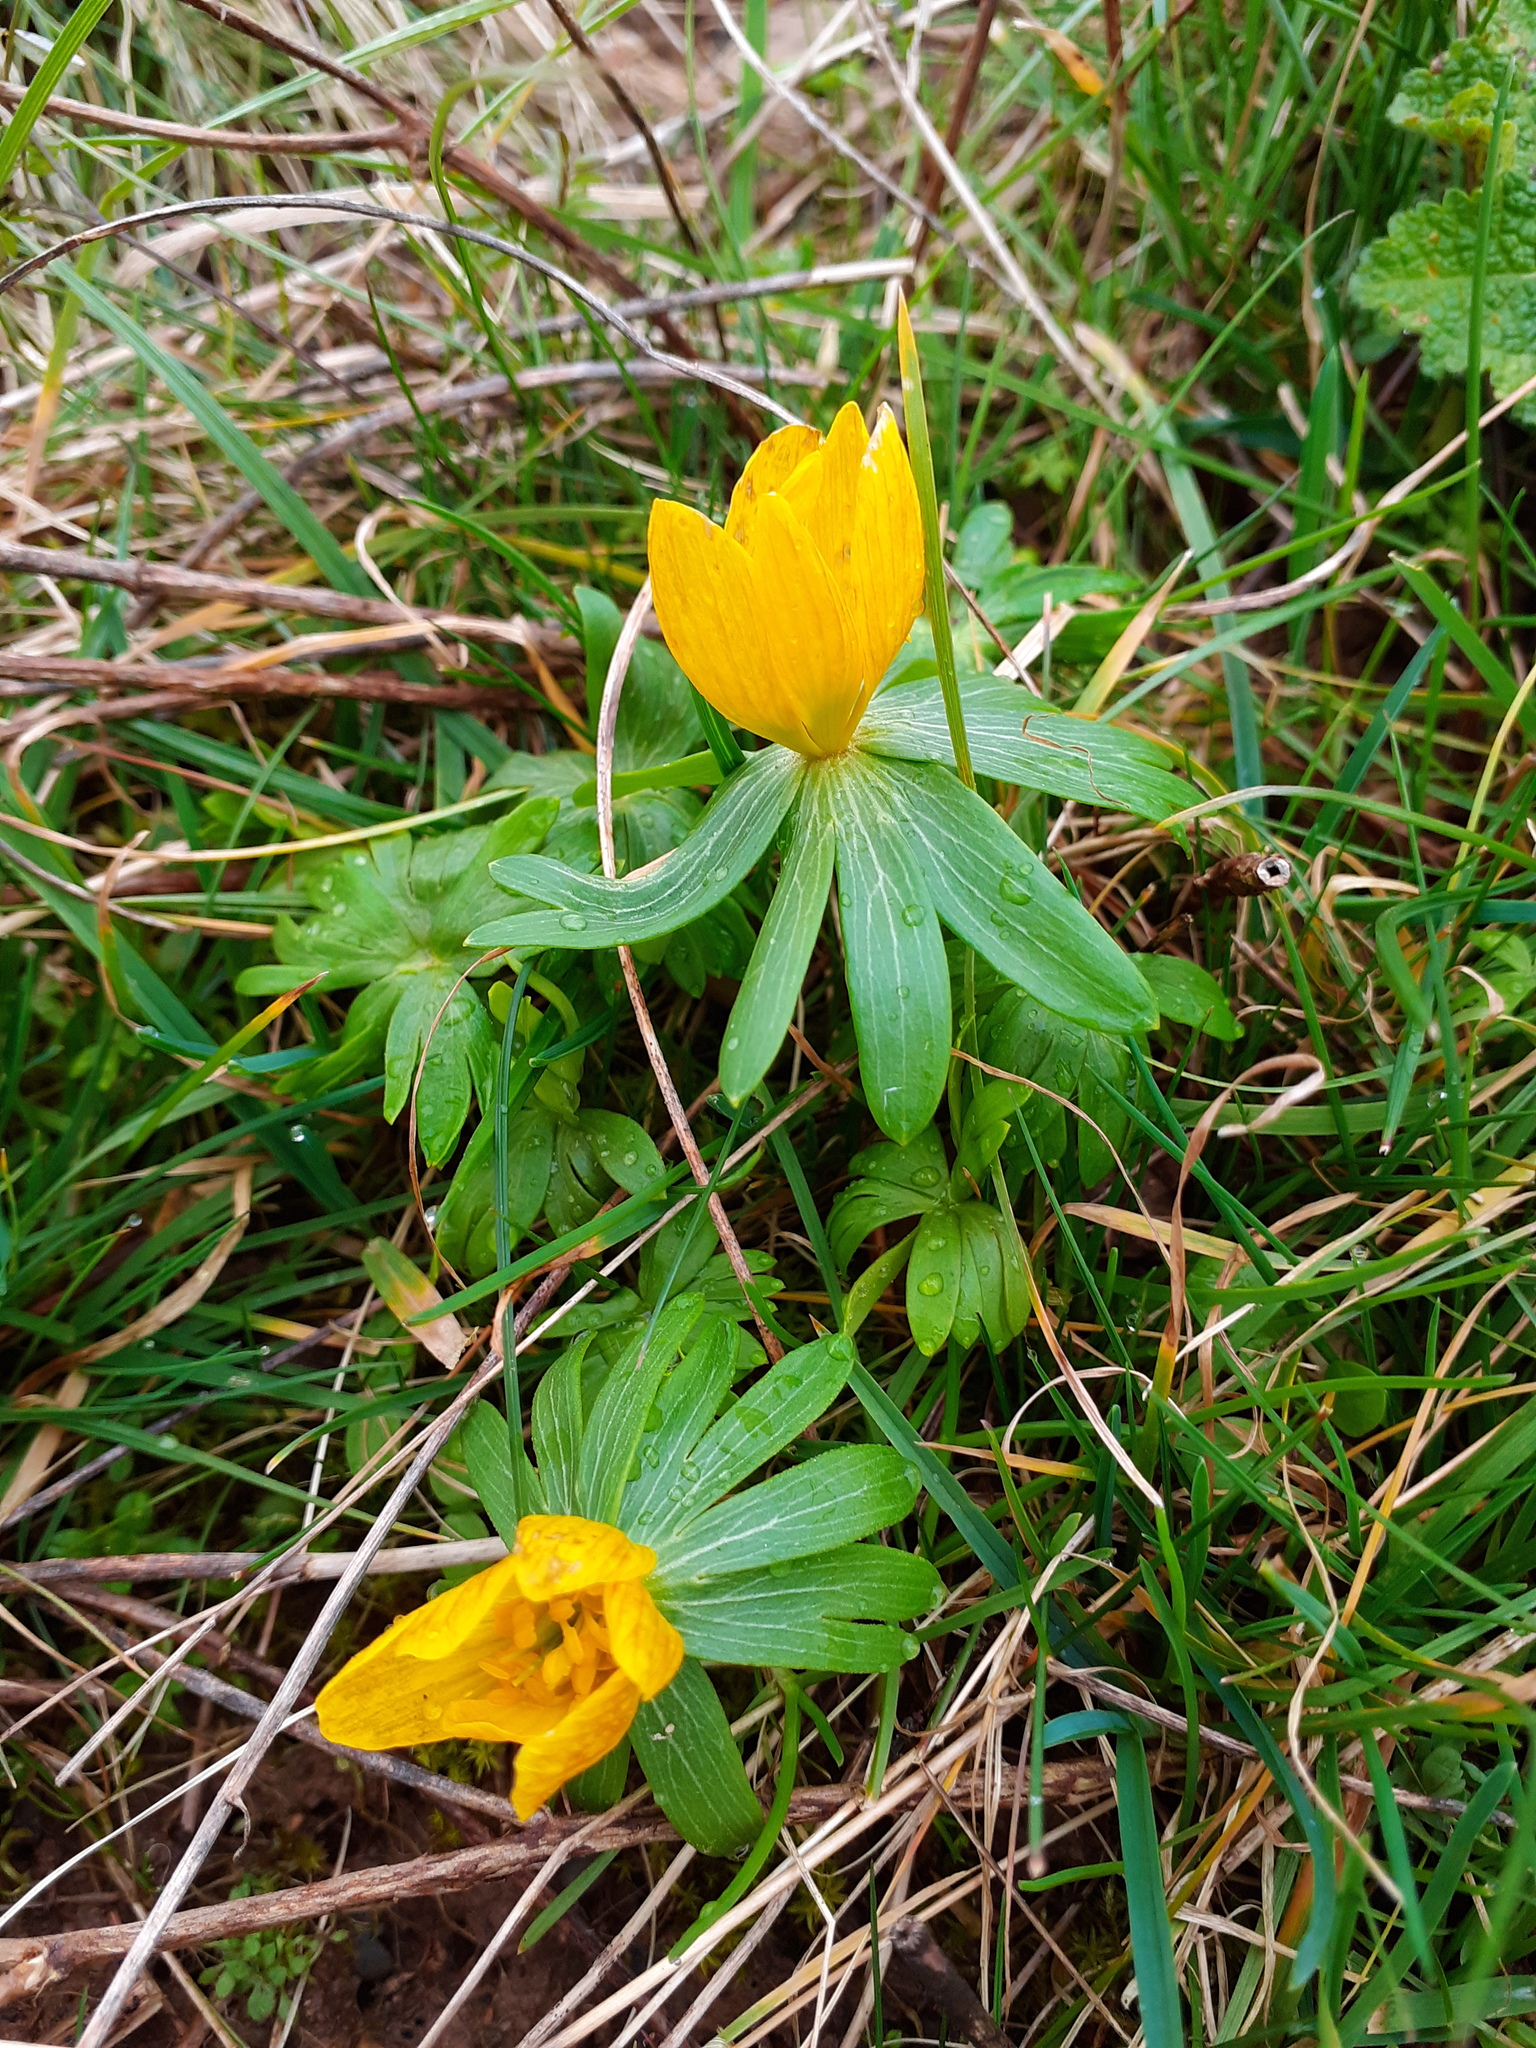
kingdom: Plantae
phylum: Tracheophyta
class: Magnoliopsida
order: Ranunculales
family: Ranunculaceae
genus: Eranthis
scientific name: Eranthis hyemalis
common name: Winter aconite
